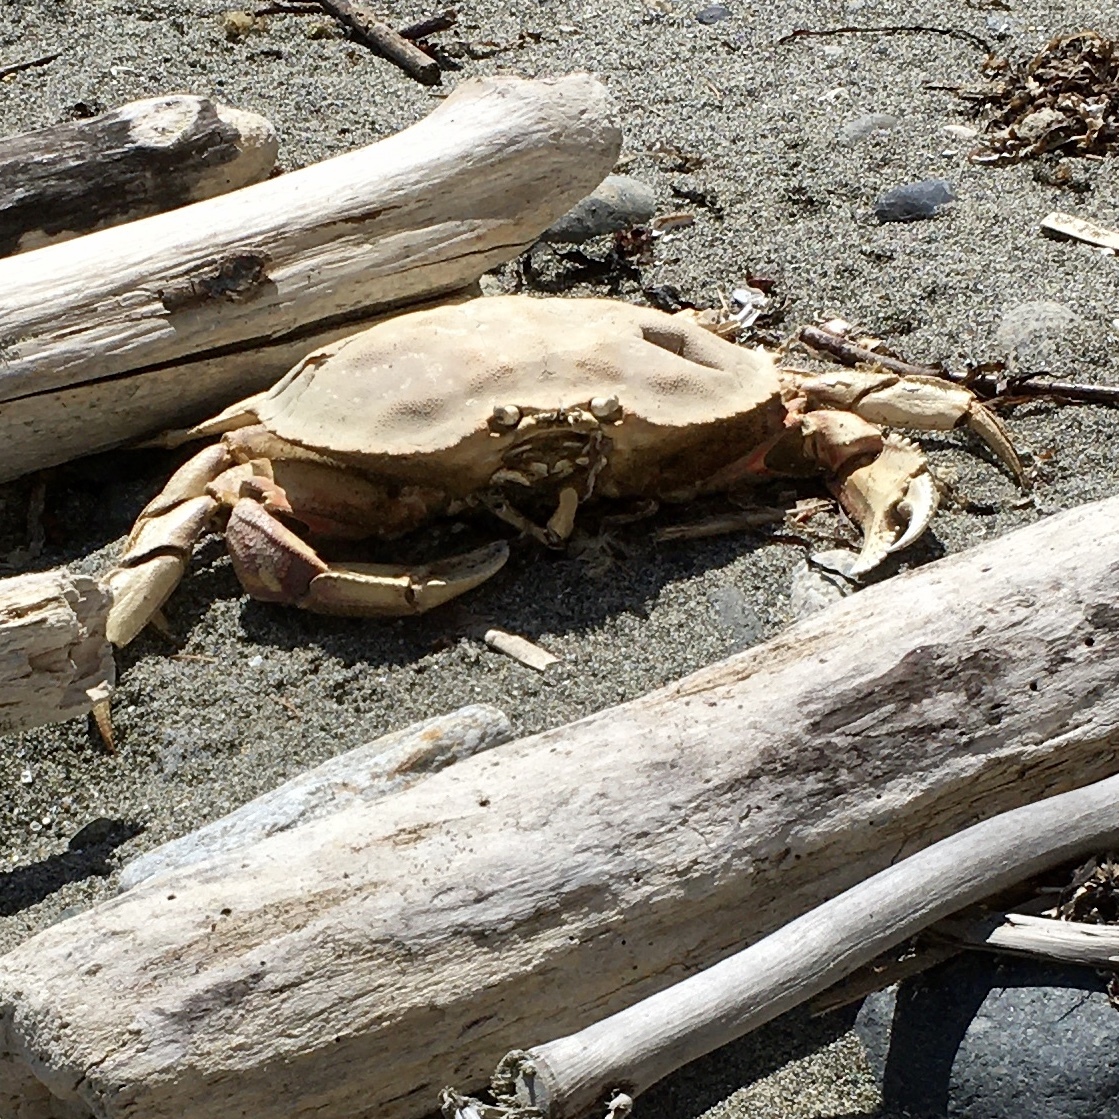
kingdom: Animalia
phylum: Arthropoda
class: Malacostraca
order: Decapoda
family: Cancridae
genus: Metacarcinus
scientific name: Metacarcinus magister
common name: Californian crab
